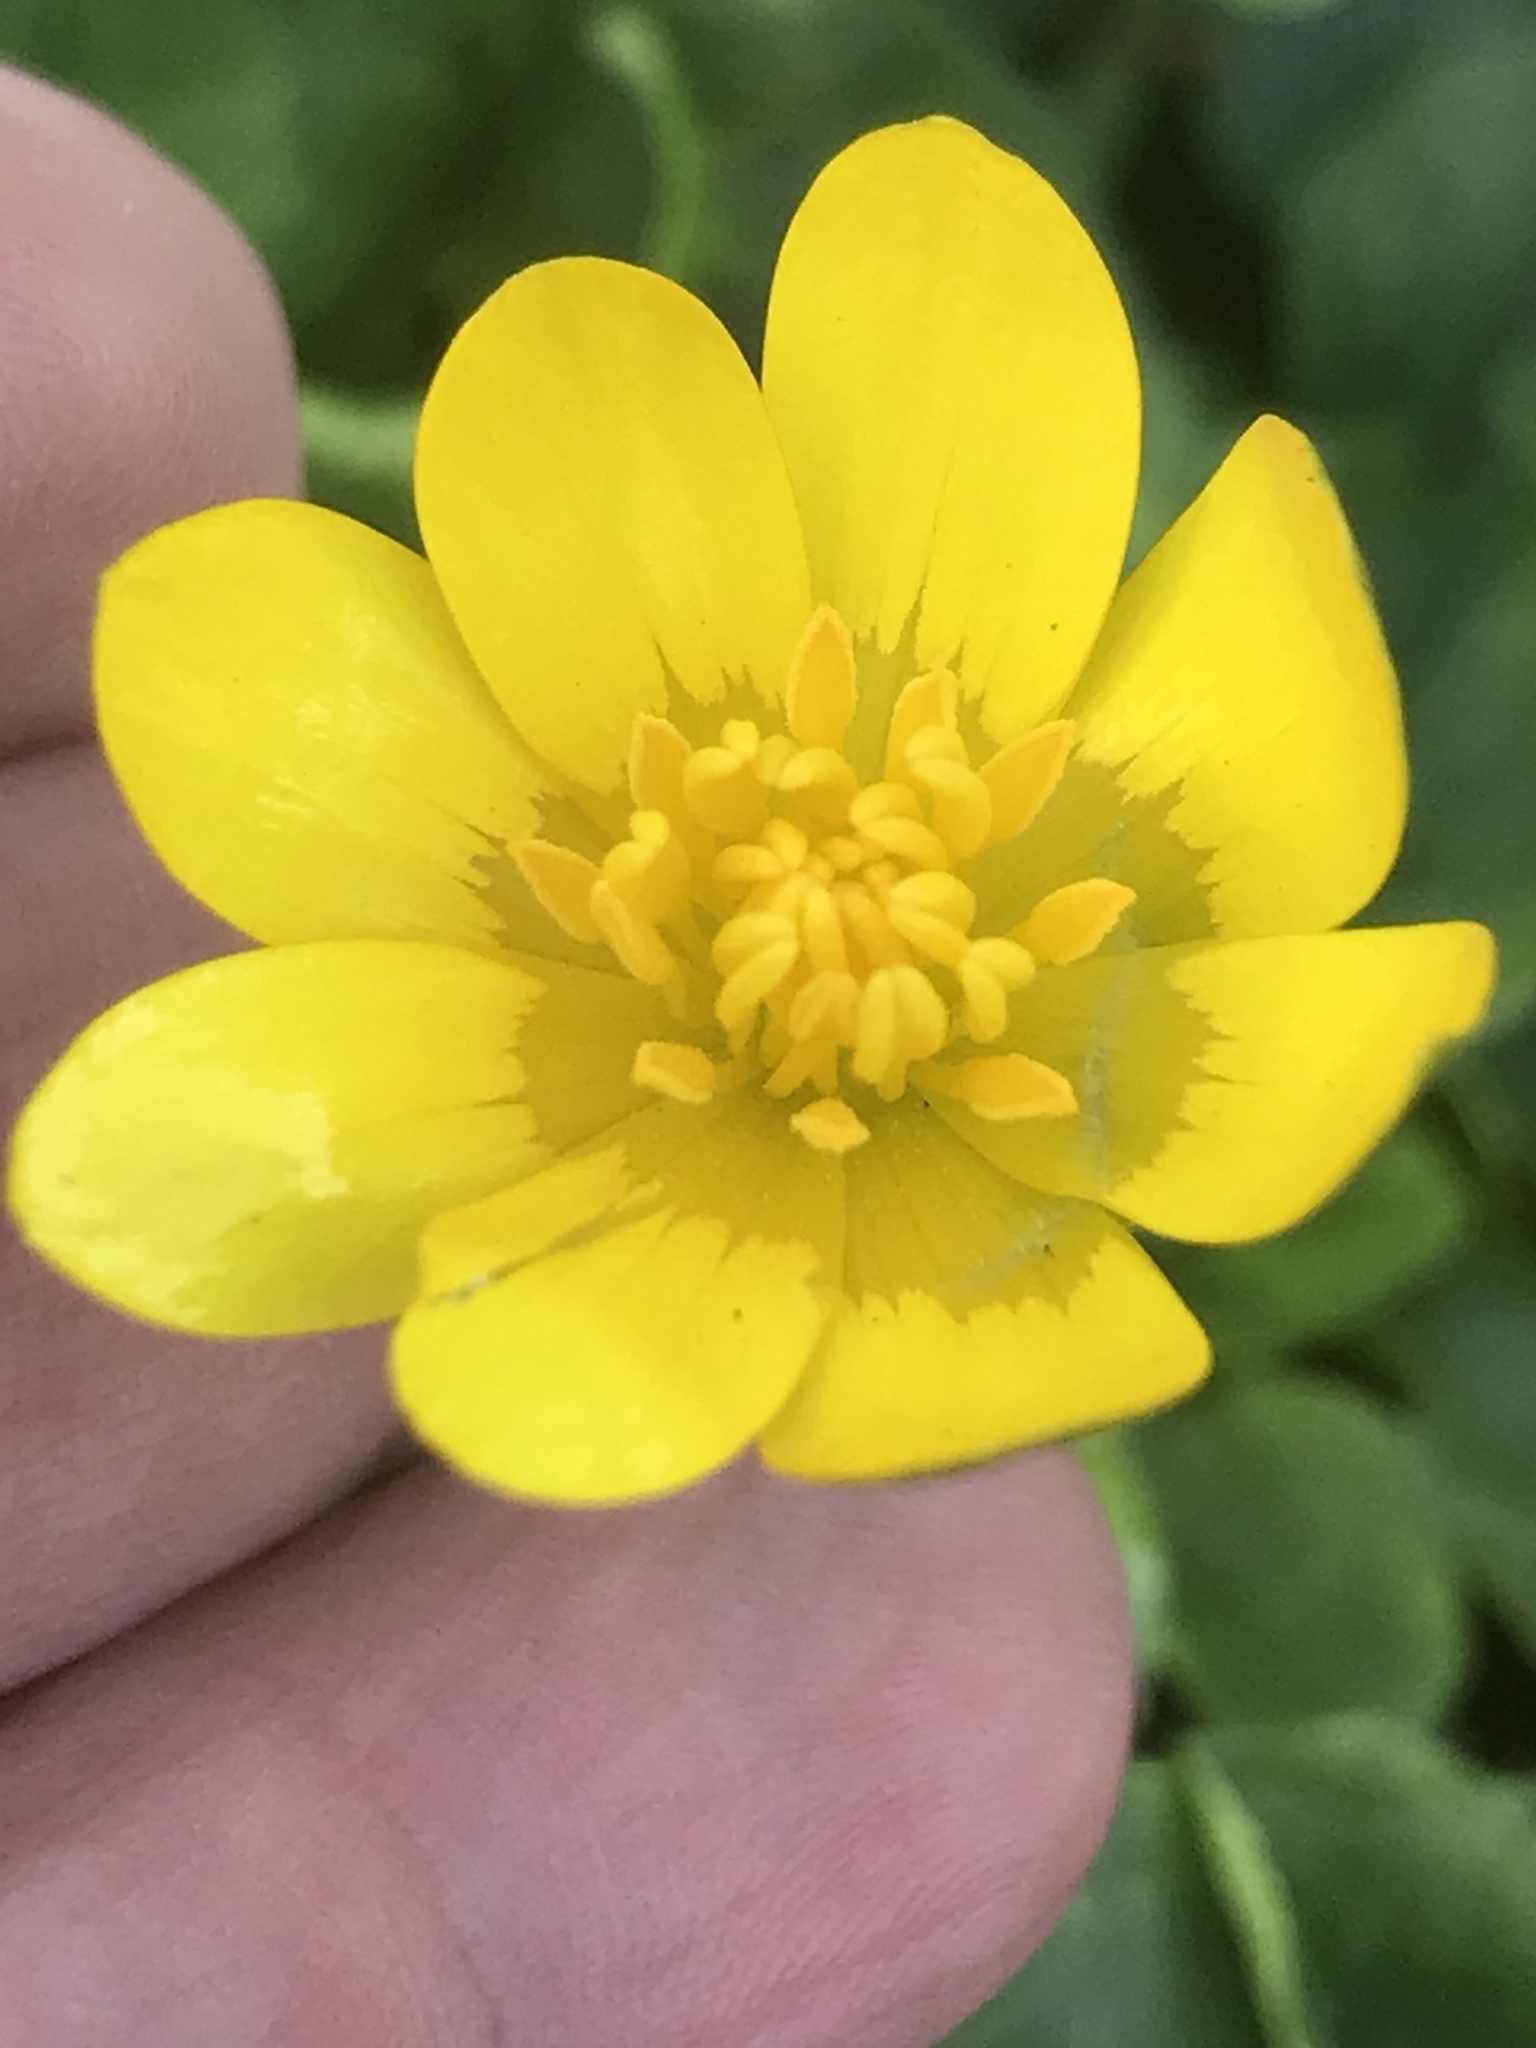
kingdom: Plantae
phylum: Tracheophyta
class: Magnoliopsida
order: Ranunculales
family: Ranunculaceae
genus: Ficaria
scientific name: Ficaria verna
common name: Lesser celandine
